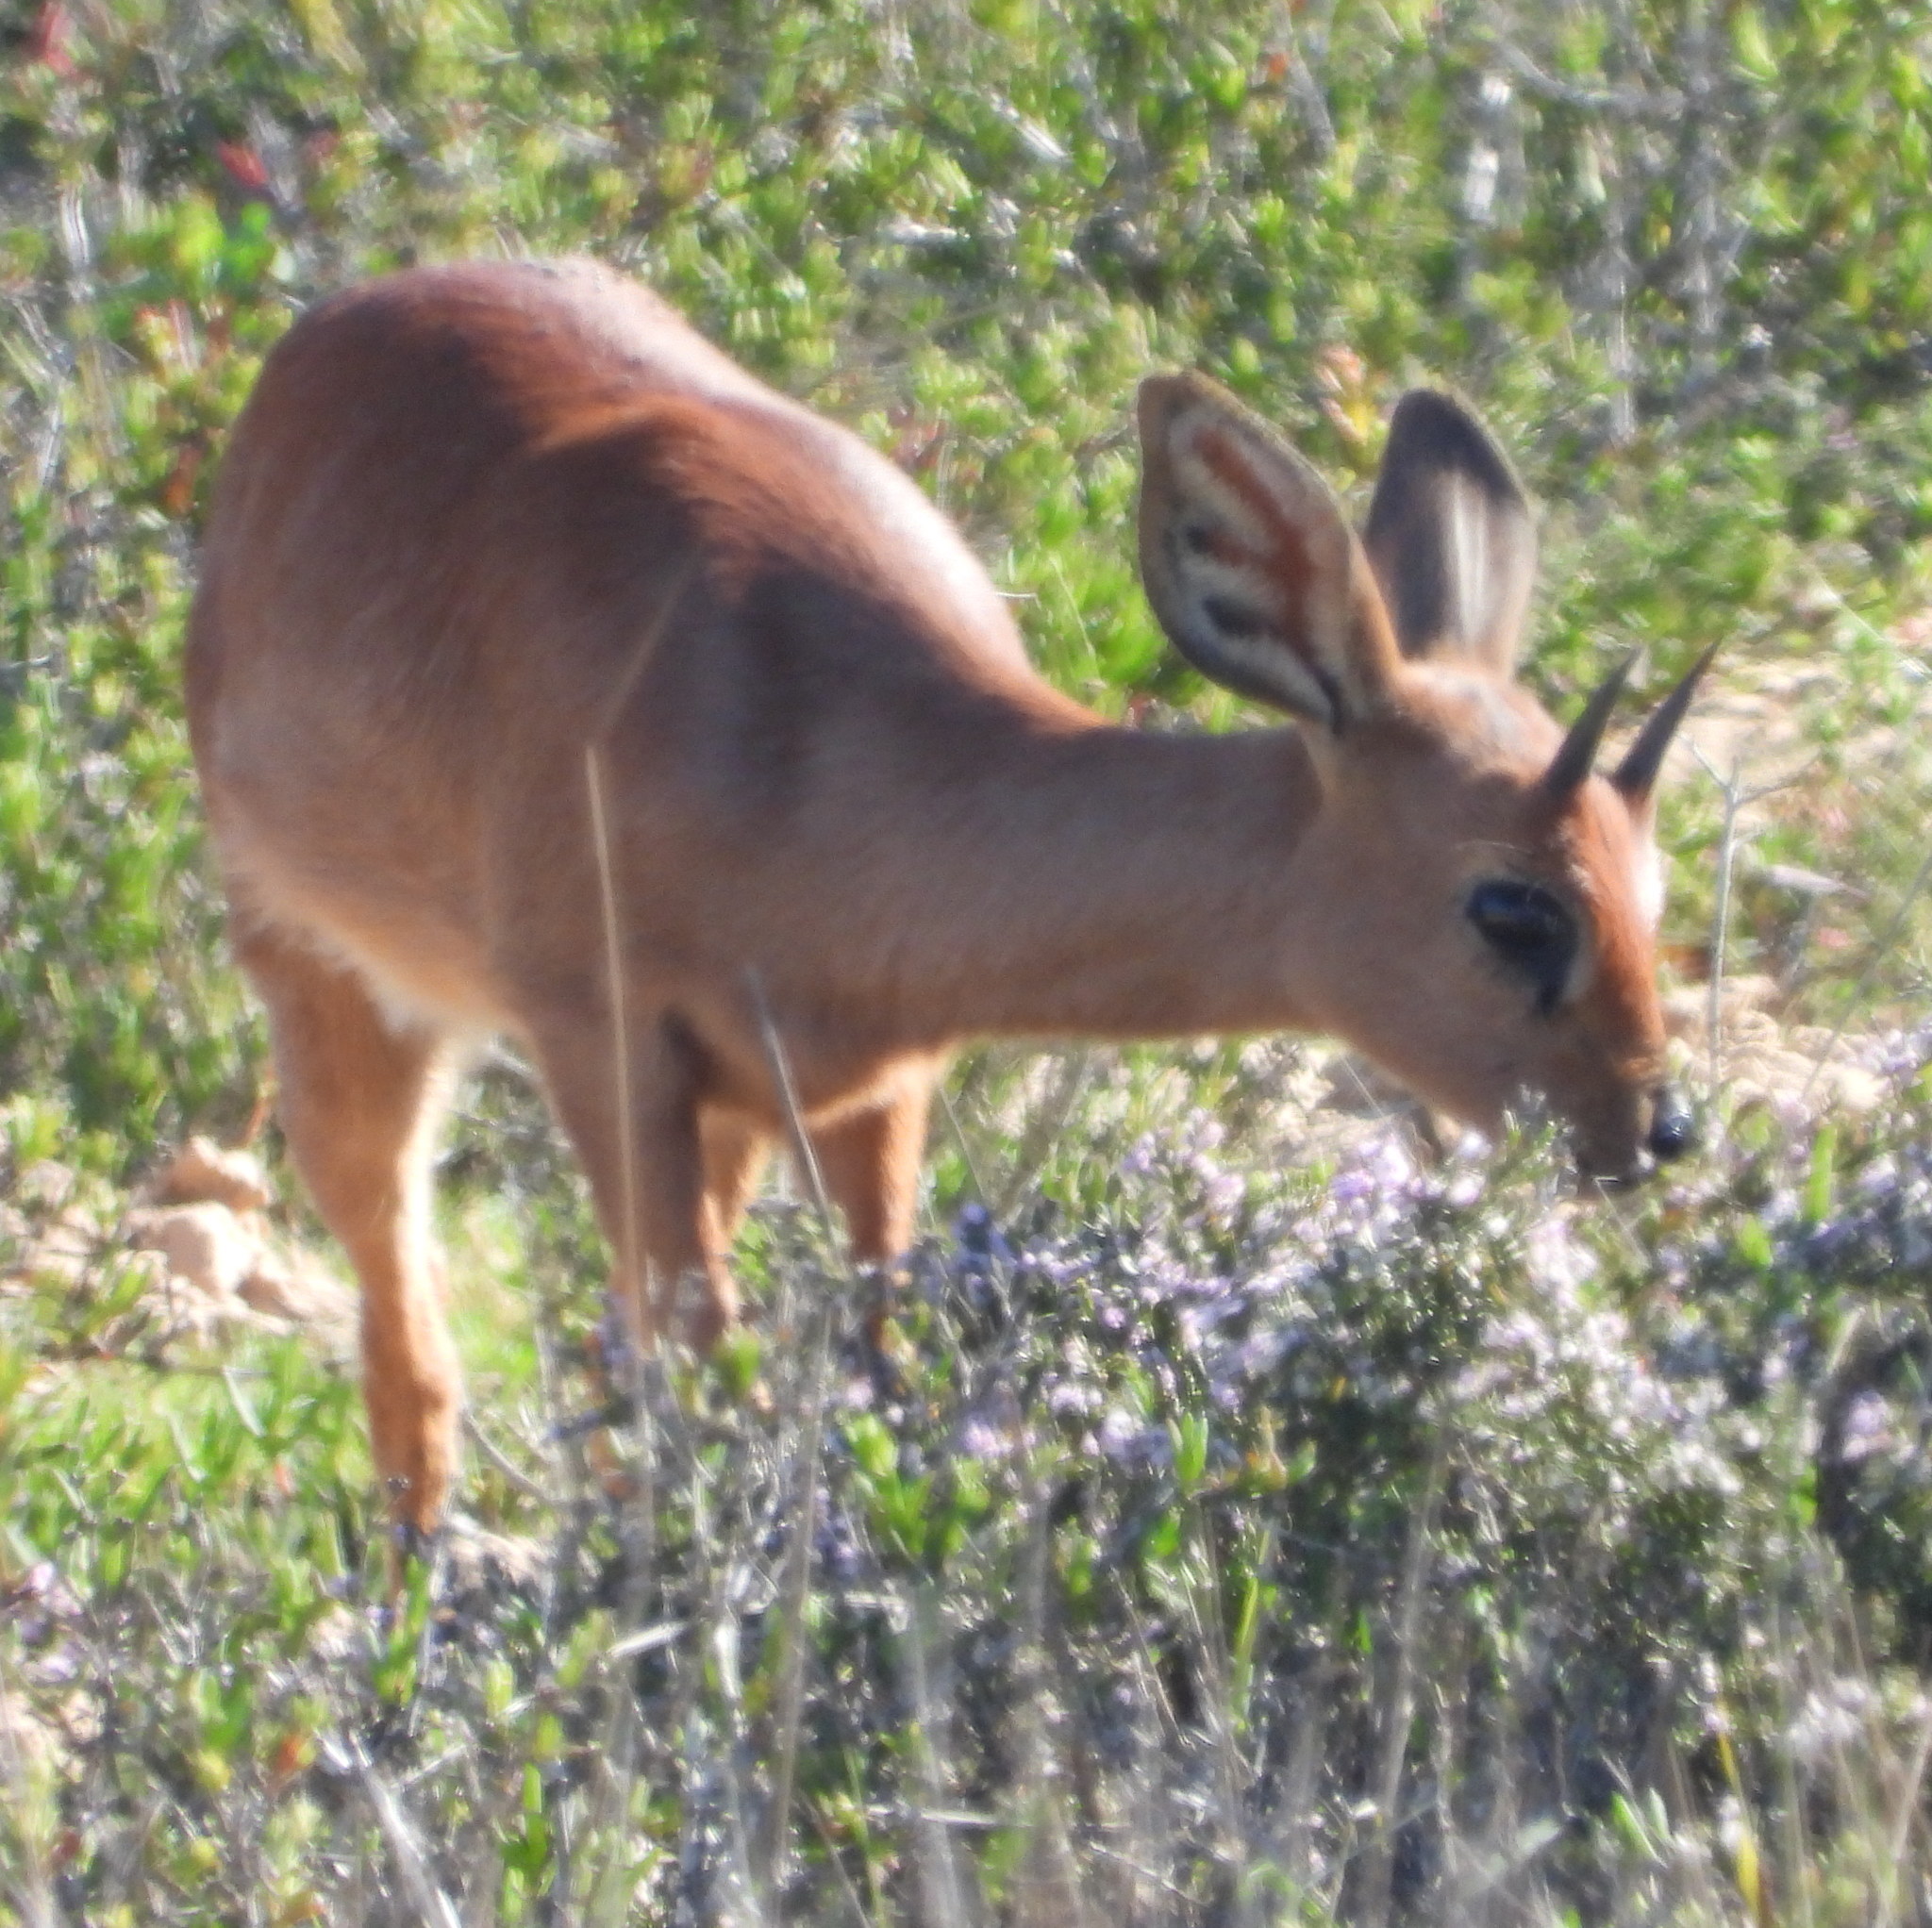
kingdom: Animalia
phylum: Chordata
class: Mammalia
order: Artiodactyla
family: Bovidae
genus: Raphicerus
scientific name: Raphicerus campestris
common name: Steenbok
